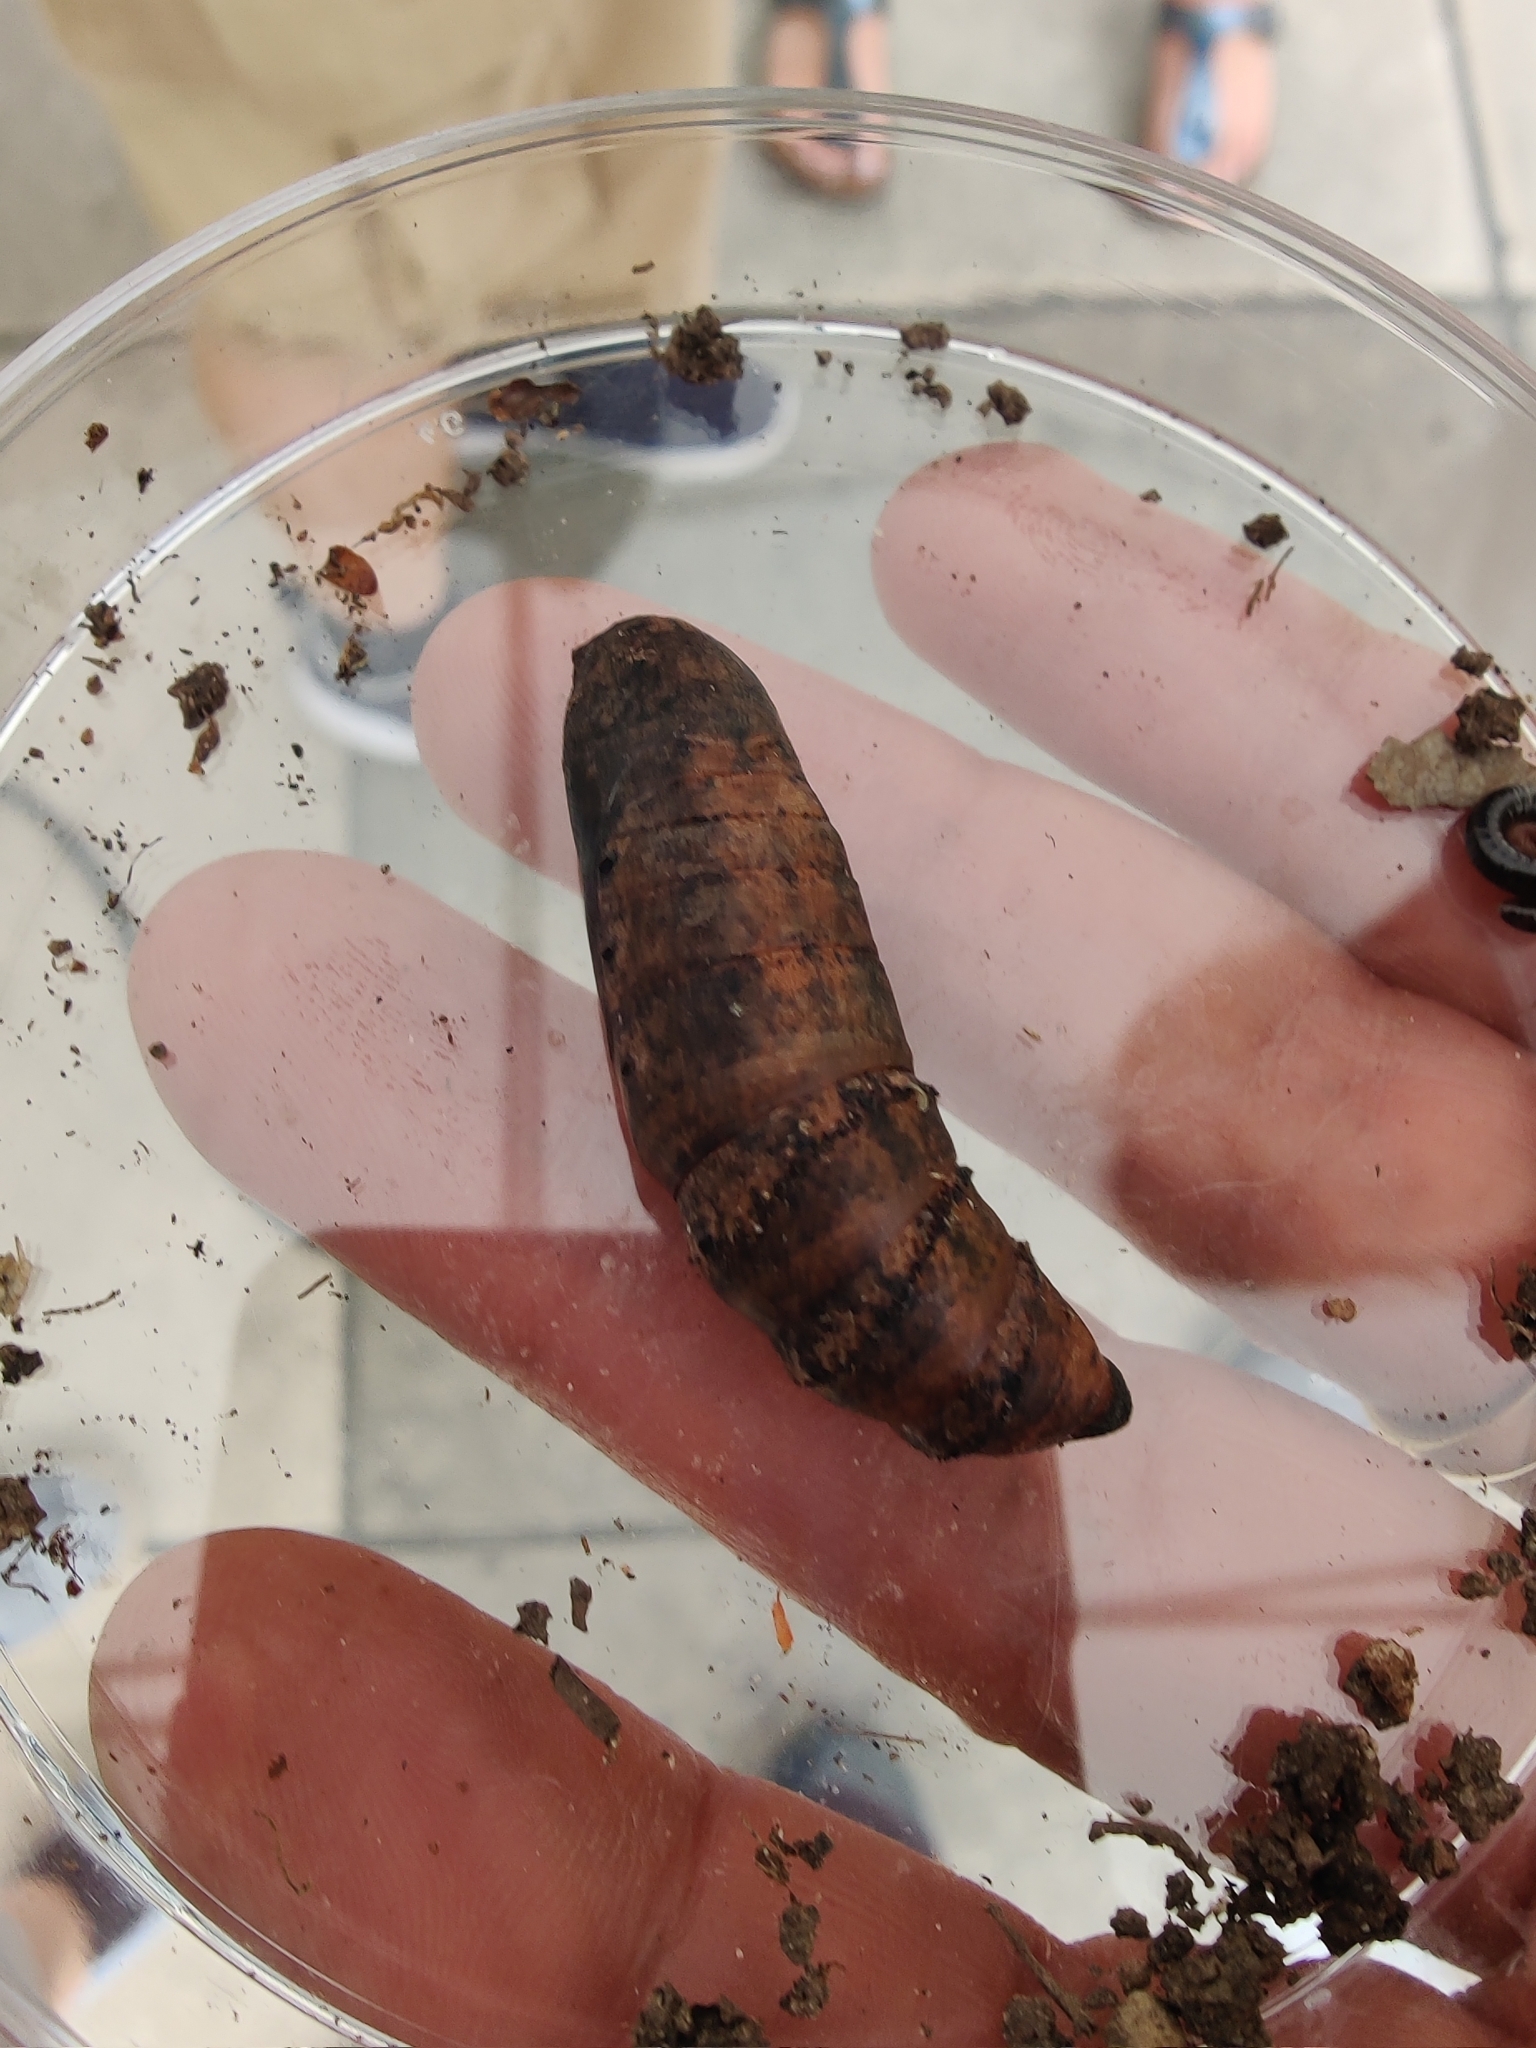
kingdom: Animalia
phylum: Arthropoda
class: Insecta
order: Lepidoptera
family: Sphingidae
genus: Deilephila
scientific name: Deilephila elpenor
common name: Elephant hawk-moth
